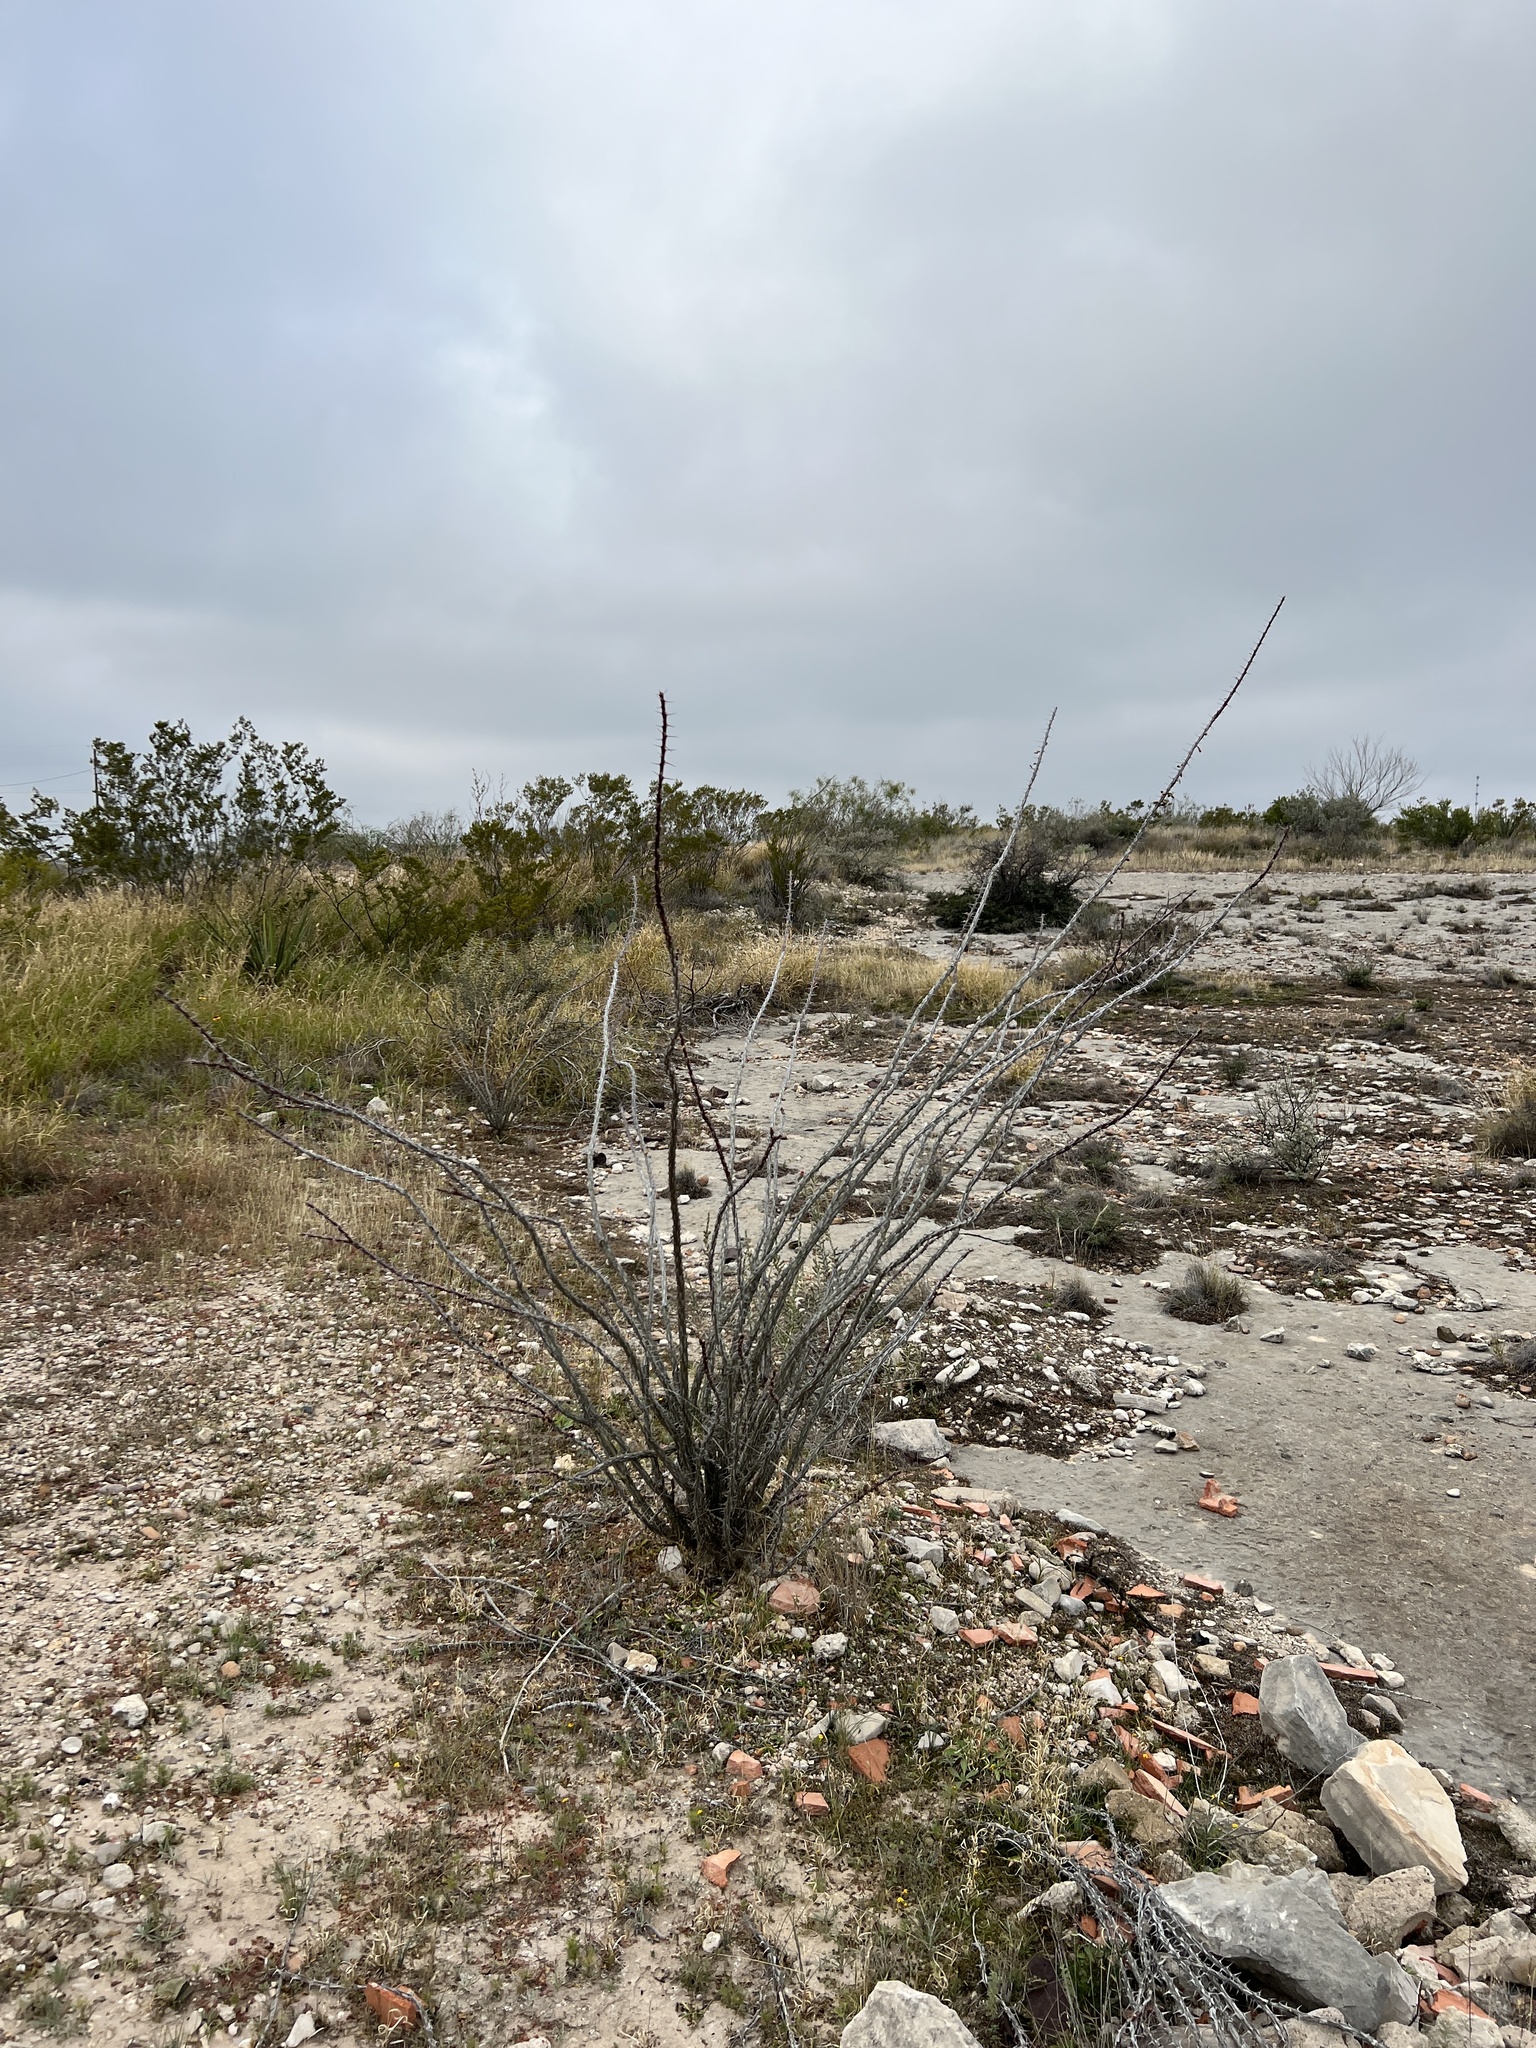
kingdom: Plantae
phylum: Tracheophyta
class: Magnoliopsida
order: Ericales
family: Fouquieriaceae
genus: Fouquieria
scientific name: Fouquieria splendens
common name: Vine-cactus
